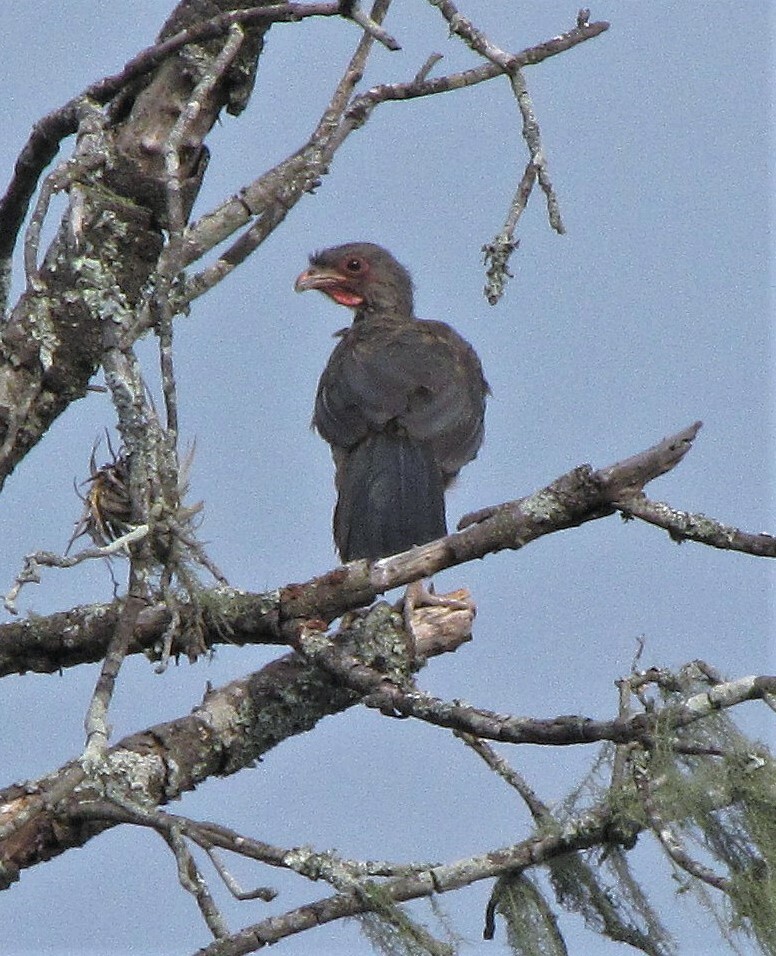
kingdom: Animalia
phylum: Chordata
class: Aves
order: Galliformes
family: Cracidae
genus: Ortalis
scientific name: Ortalis canicollis
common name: Chaco chachalaca
